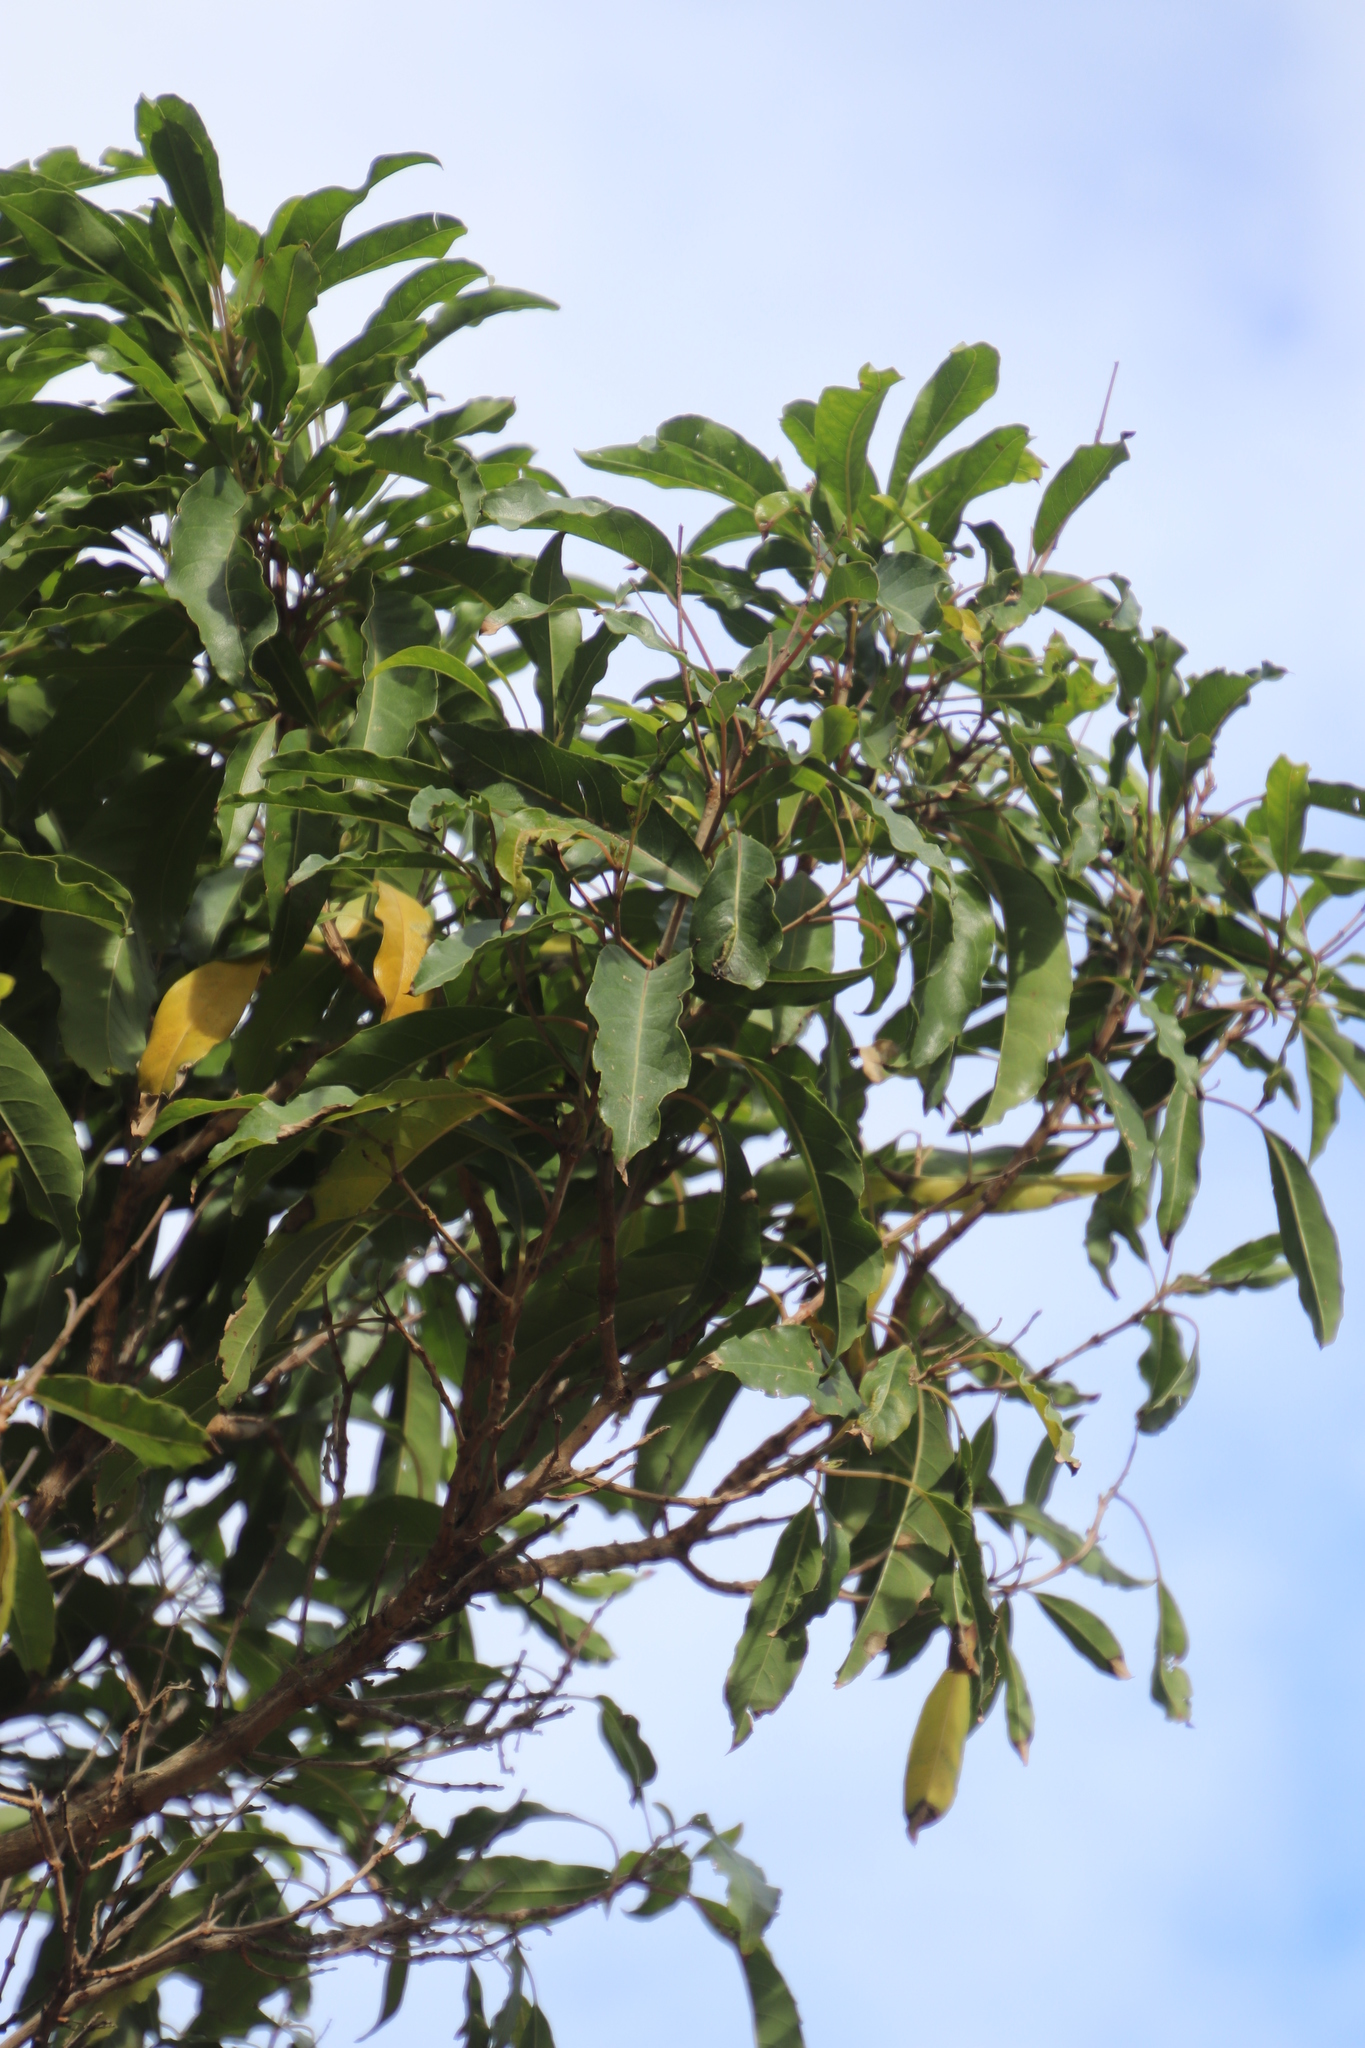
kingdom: Plantae
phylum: Tracheophyta
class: Magnoliopsida
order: Lamiales
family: Stilbaceae
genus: Nuxia
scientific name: Nuxia floribunda
